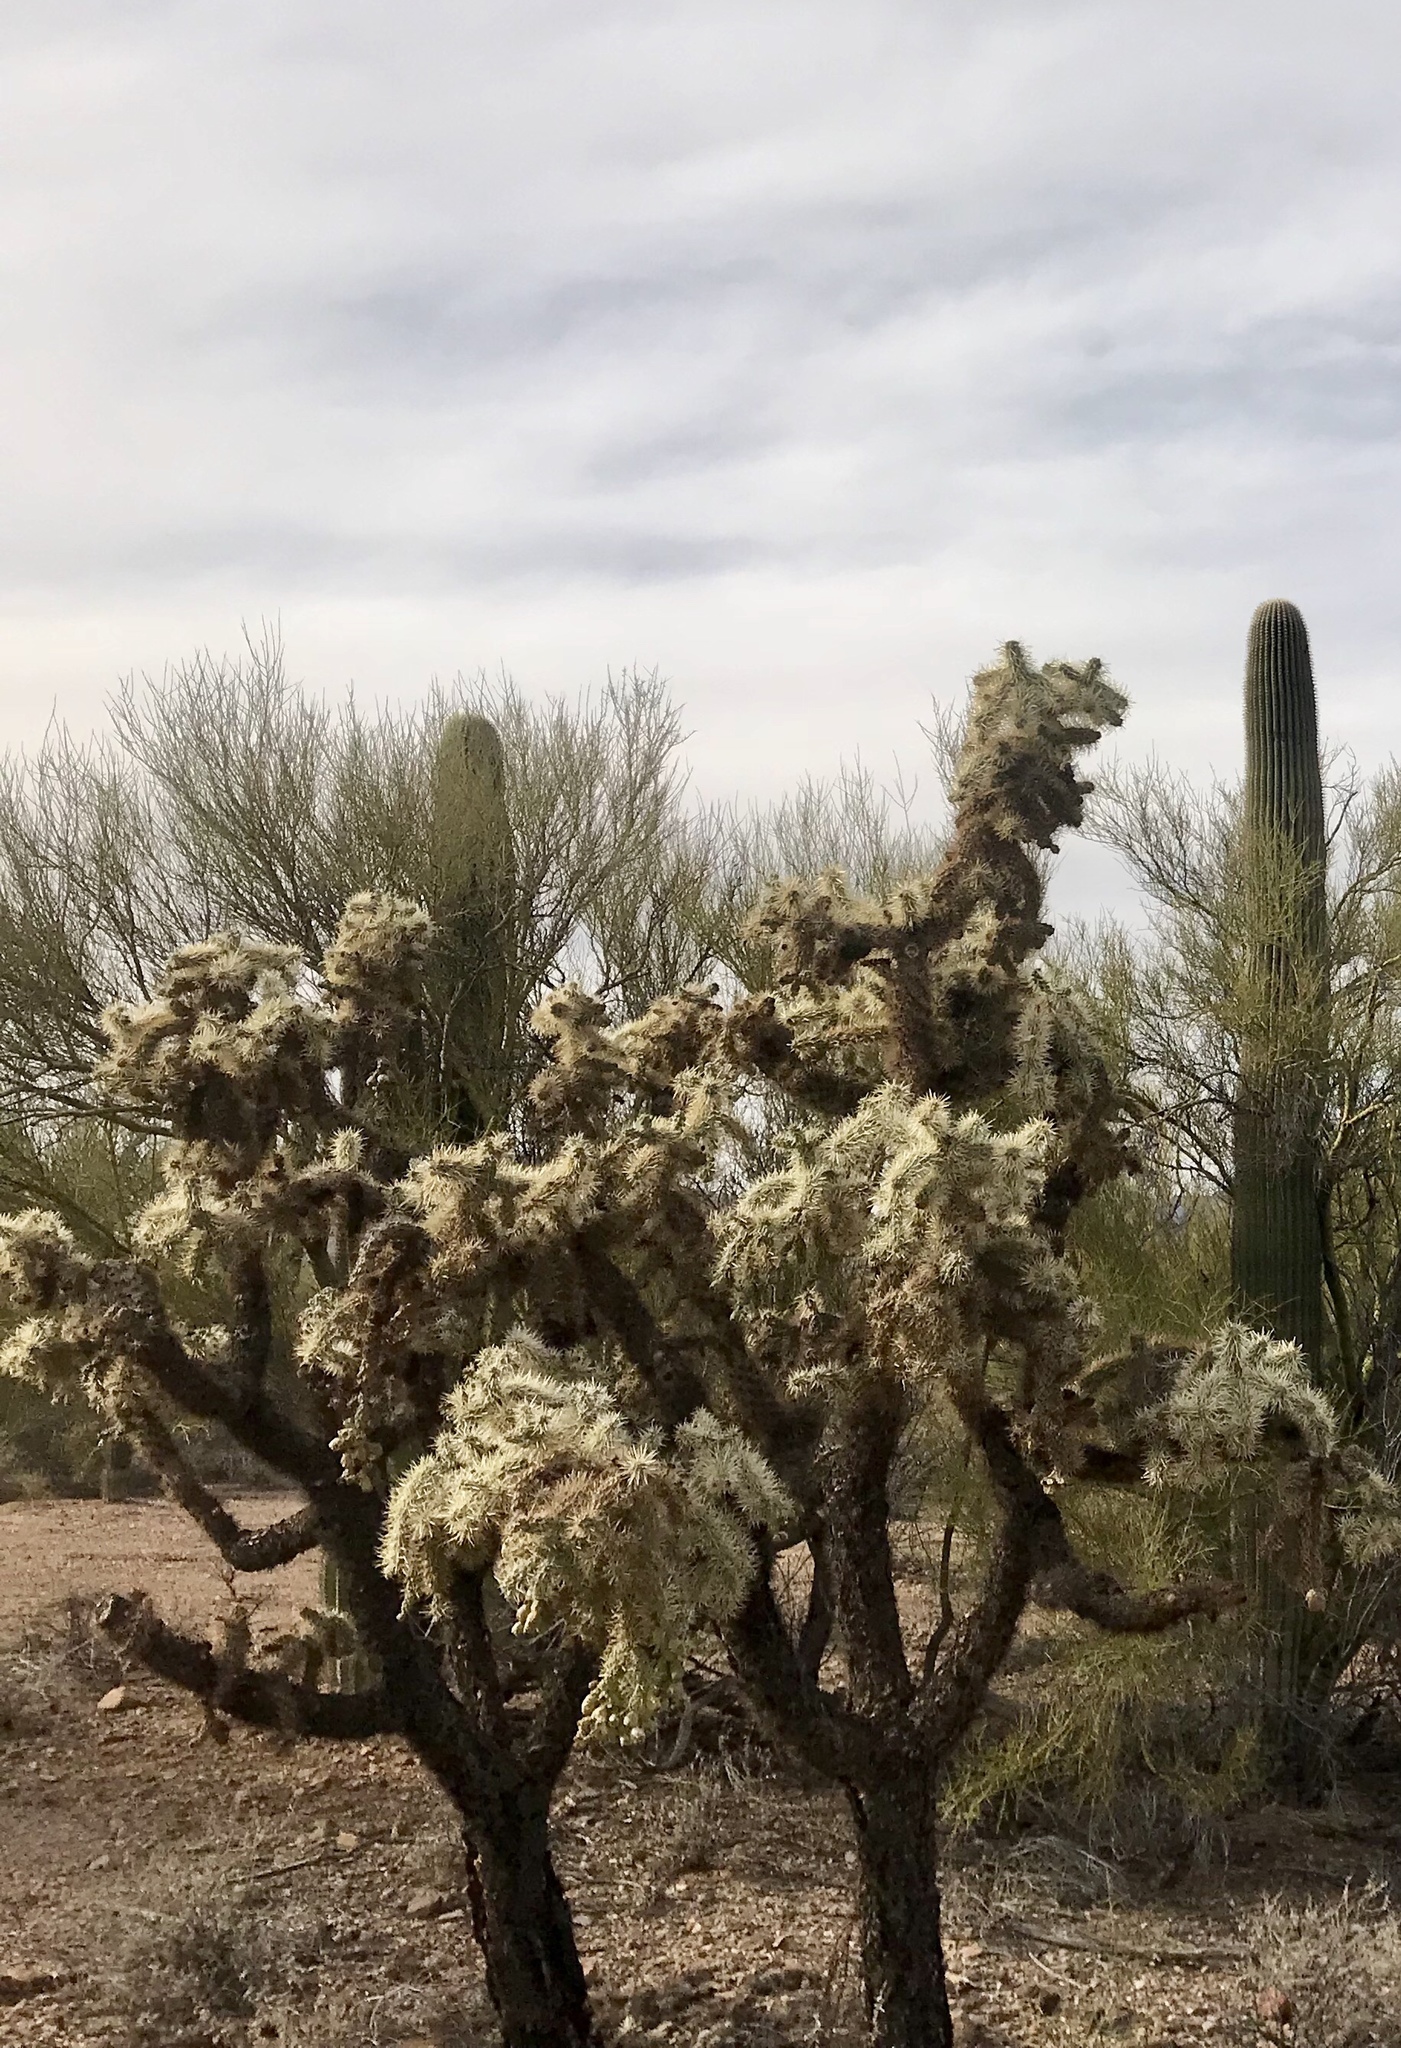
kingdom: Plantae
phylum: Tracheophyta
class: Magnoliopsida
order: Caryophyllales
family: Cactaceae
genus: Cylindropuntia
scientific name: Cylindropuntia fulgida
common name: Jumping cholla
